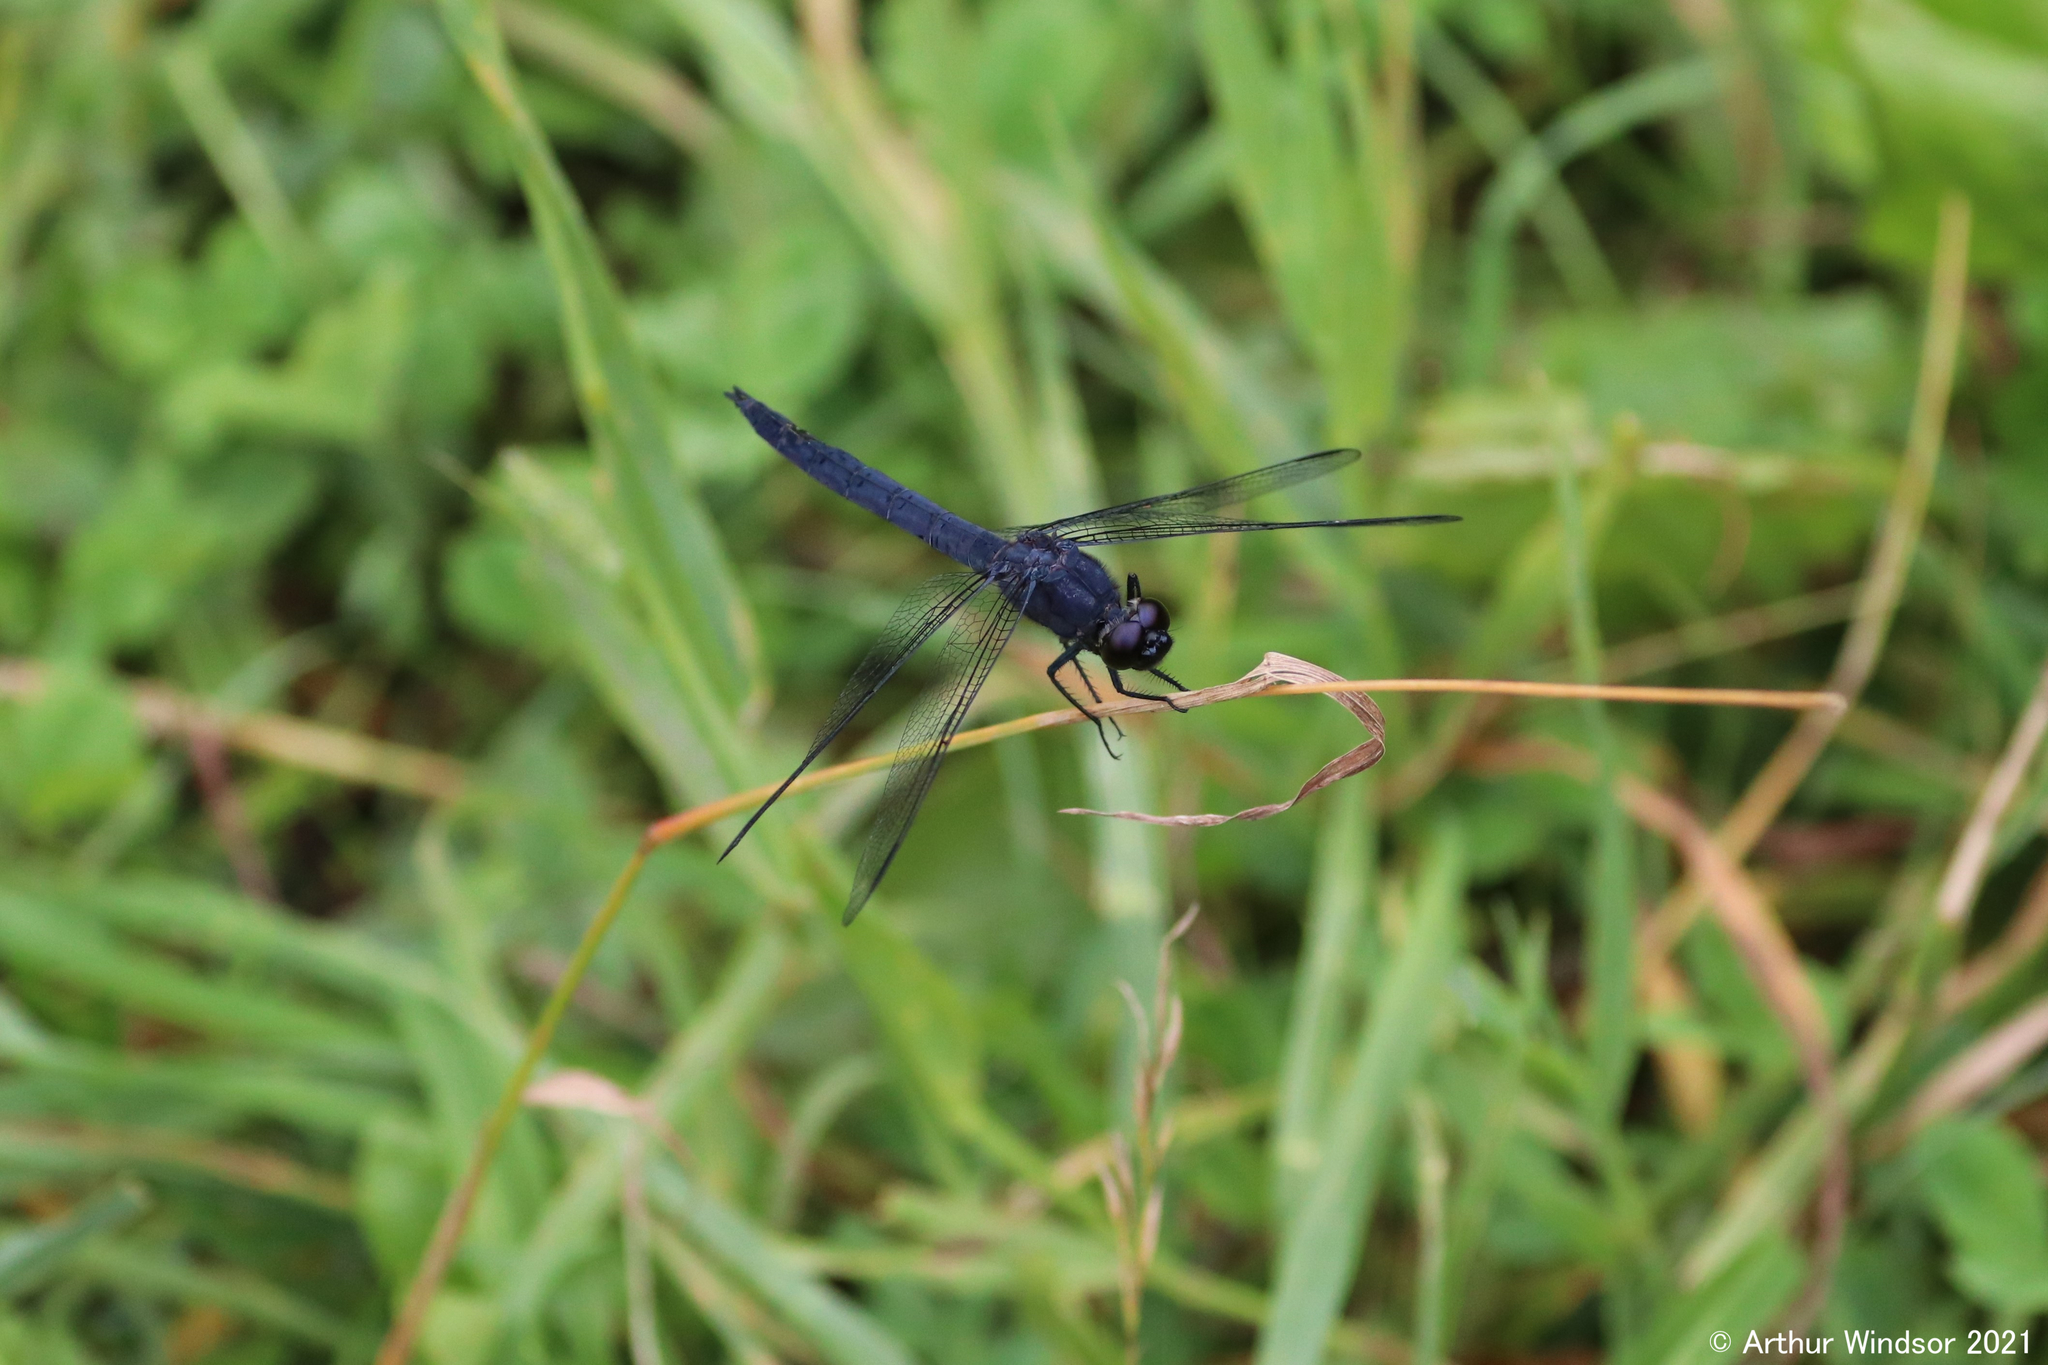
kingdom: Animalia
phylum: Arthropoda
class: Insecta
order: Odonata
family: Libellulidae
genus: Libellula
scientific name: Libellula incesta
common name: Slaty skimmer
